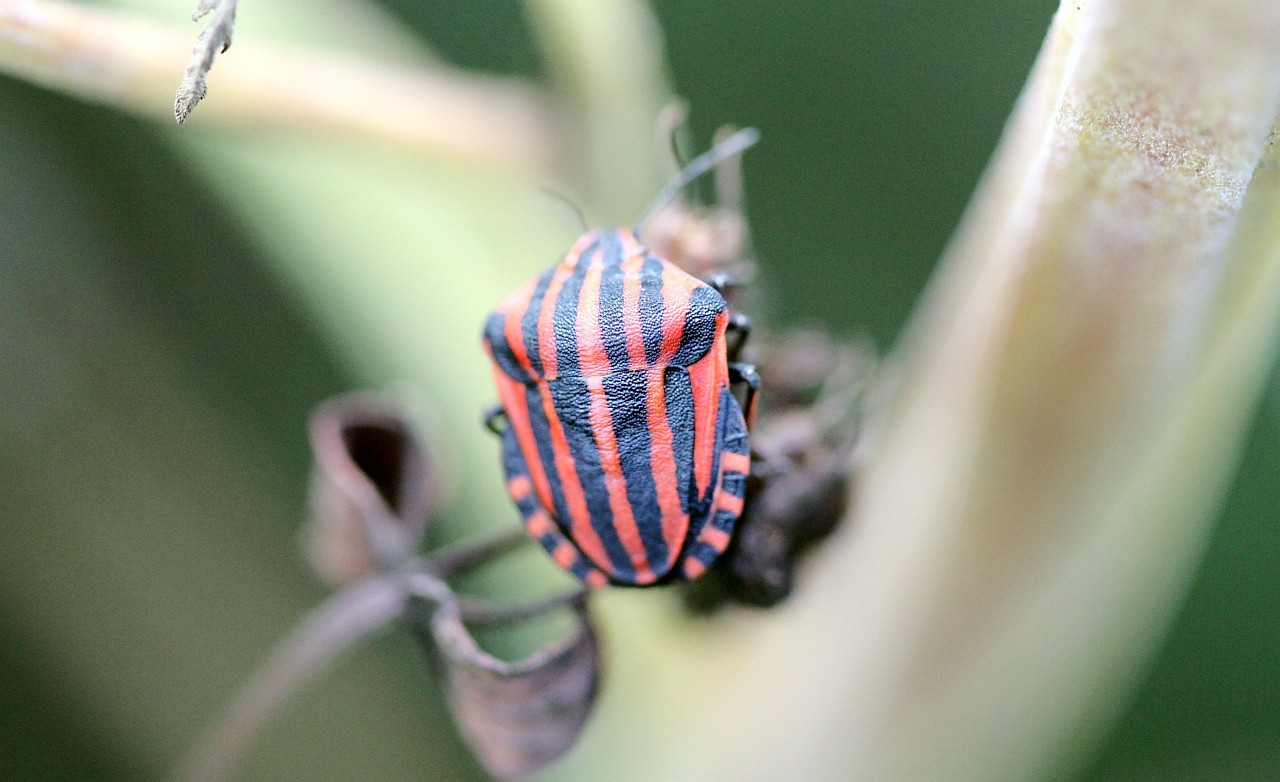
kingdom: Animalia
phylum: Arthropoda
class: Insecta
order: Hemiptera
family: Pentatomidae
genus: Graphosoma
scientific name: Graphosoma italicum
